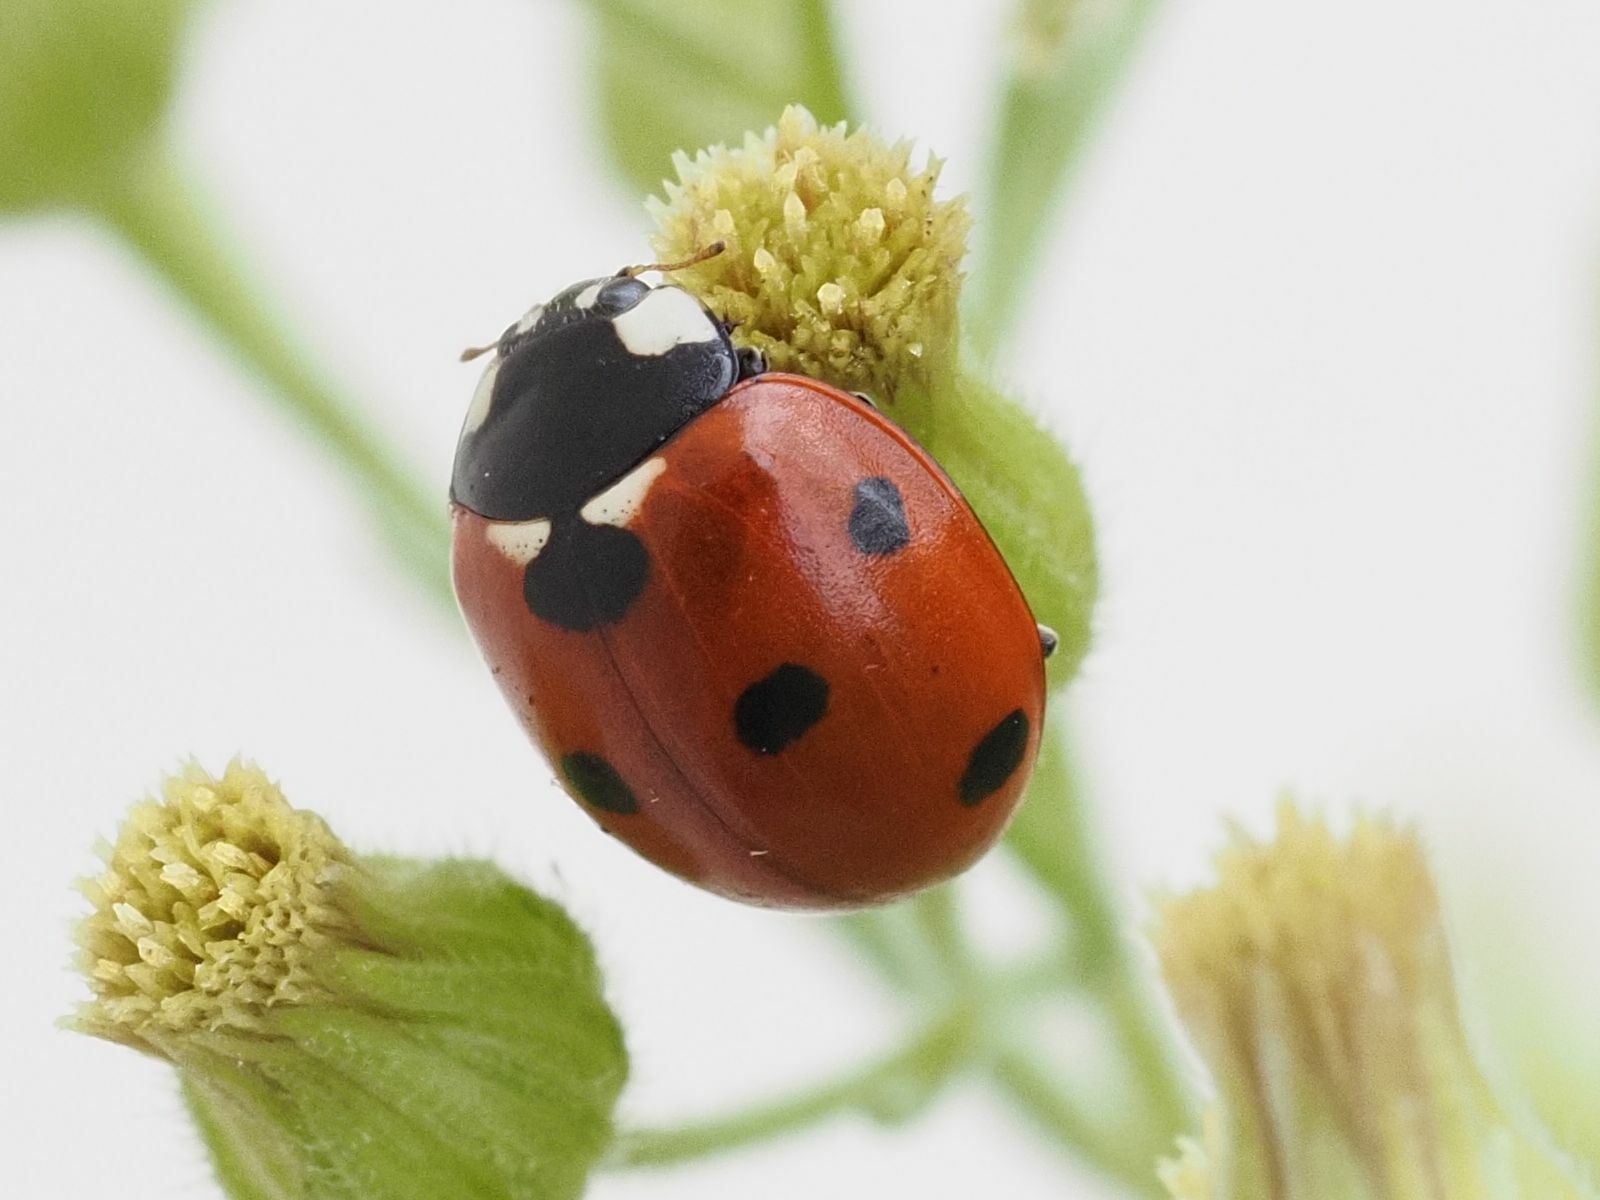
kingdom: Animalia
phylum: Arthropoda
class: Insecta
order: Coleoptera
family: Coccinellidae
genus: Coccinella
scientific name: Coccinella septempunctata
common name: Sevenspotted lady beetle
